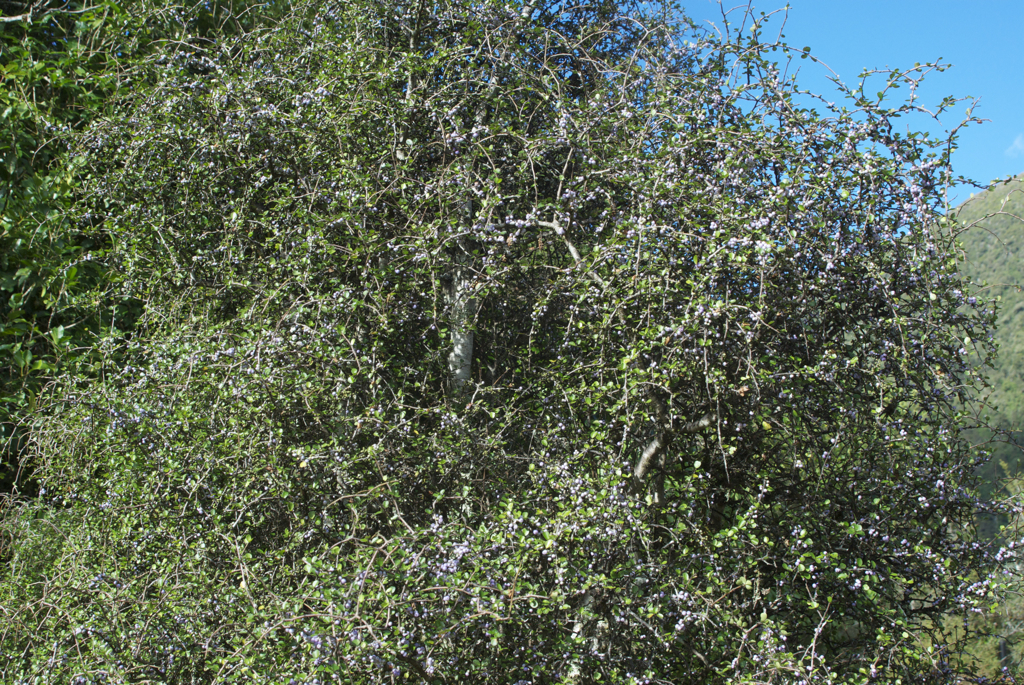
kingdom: Plantae
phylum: Tracheophyta
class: Magnoliopsida
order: Ericales
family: Primulaceae
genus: Myrsine
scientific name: Myrsine divaricata
